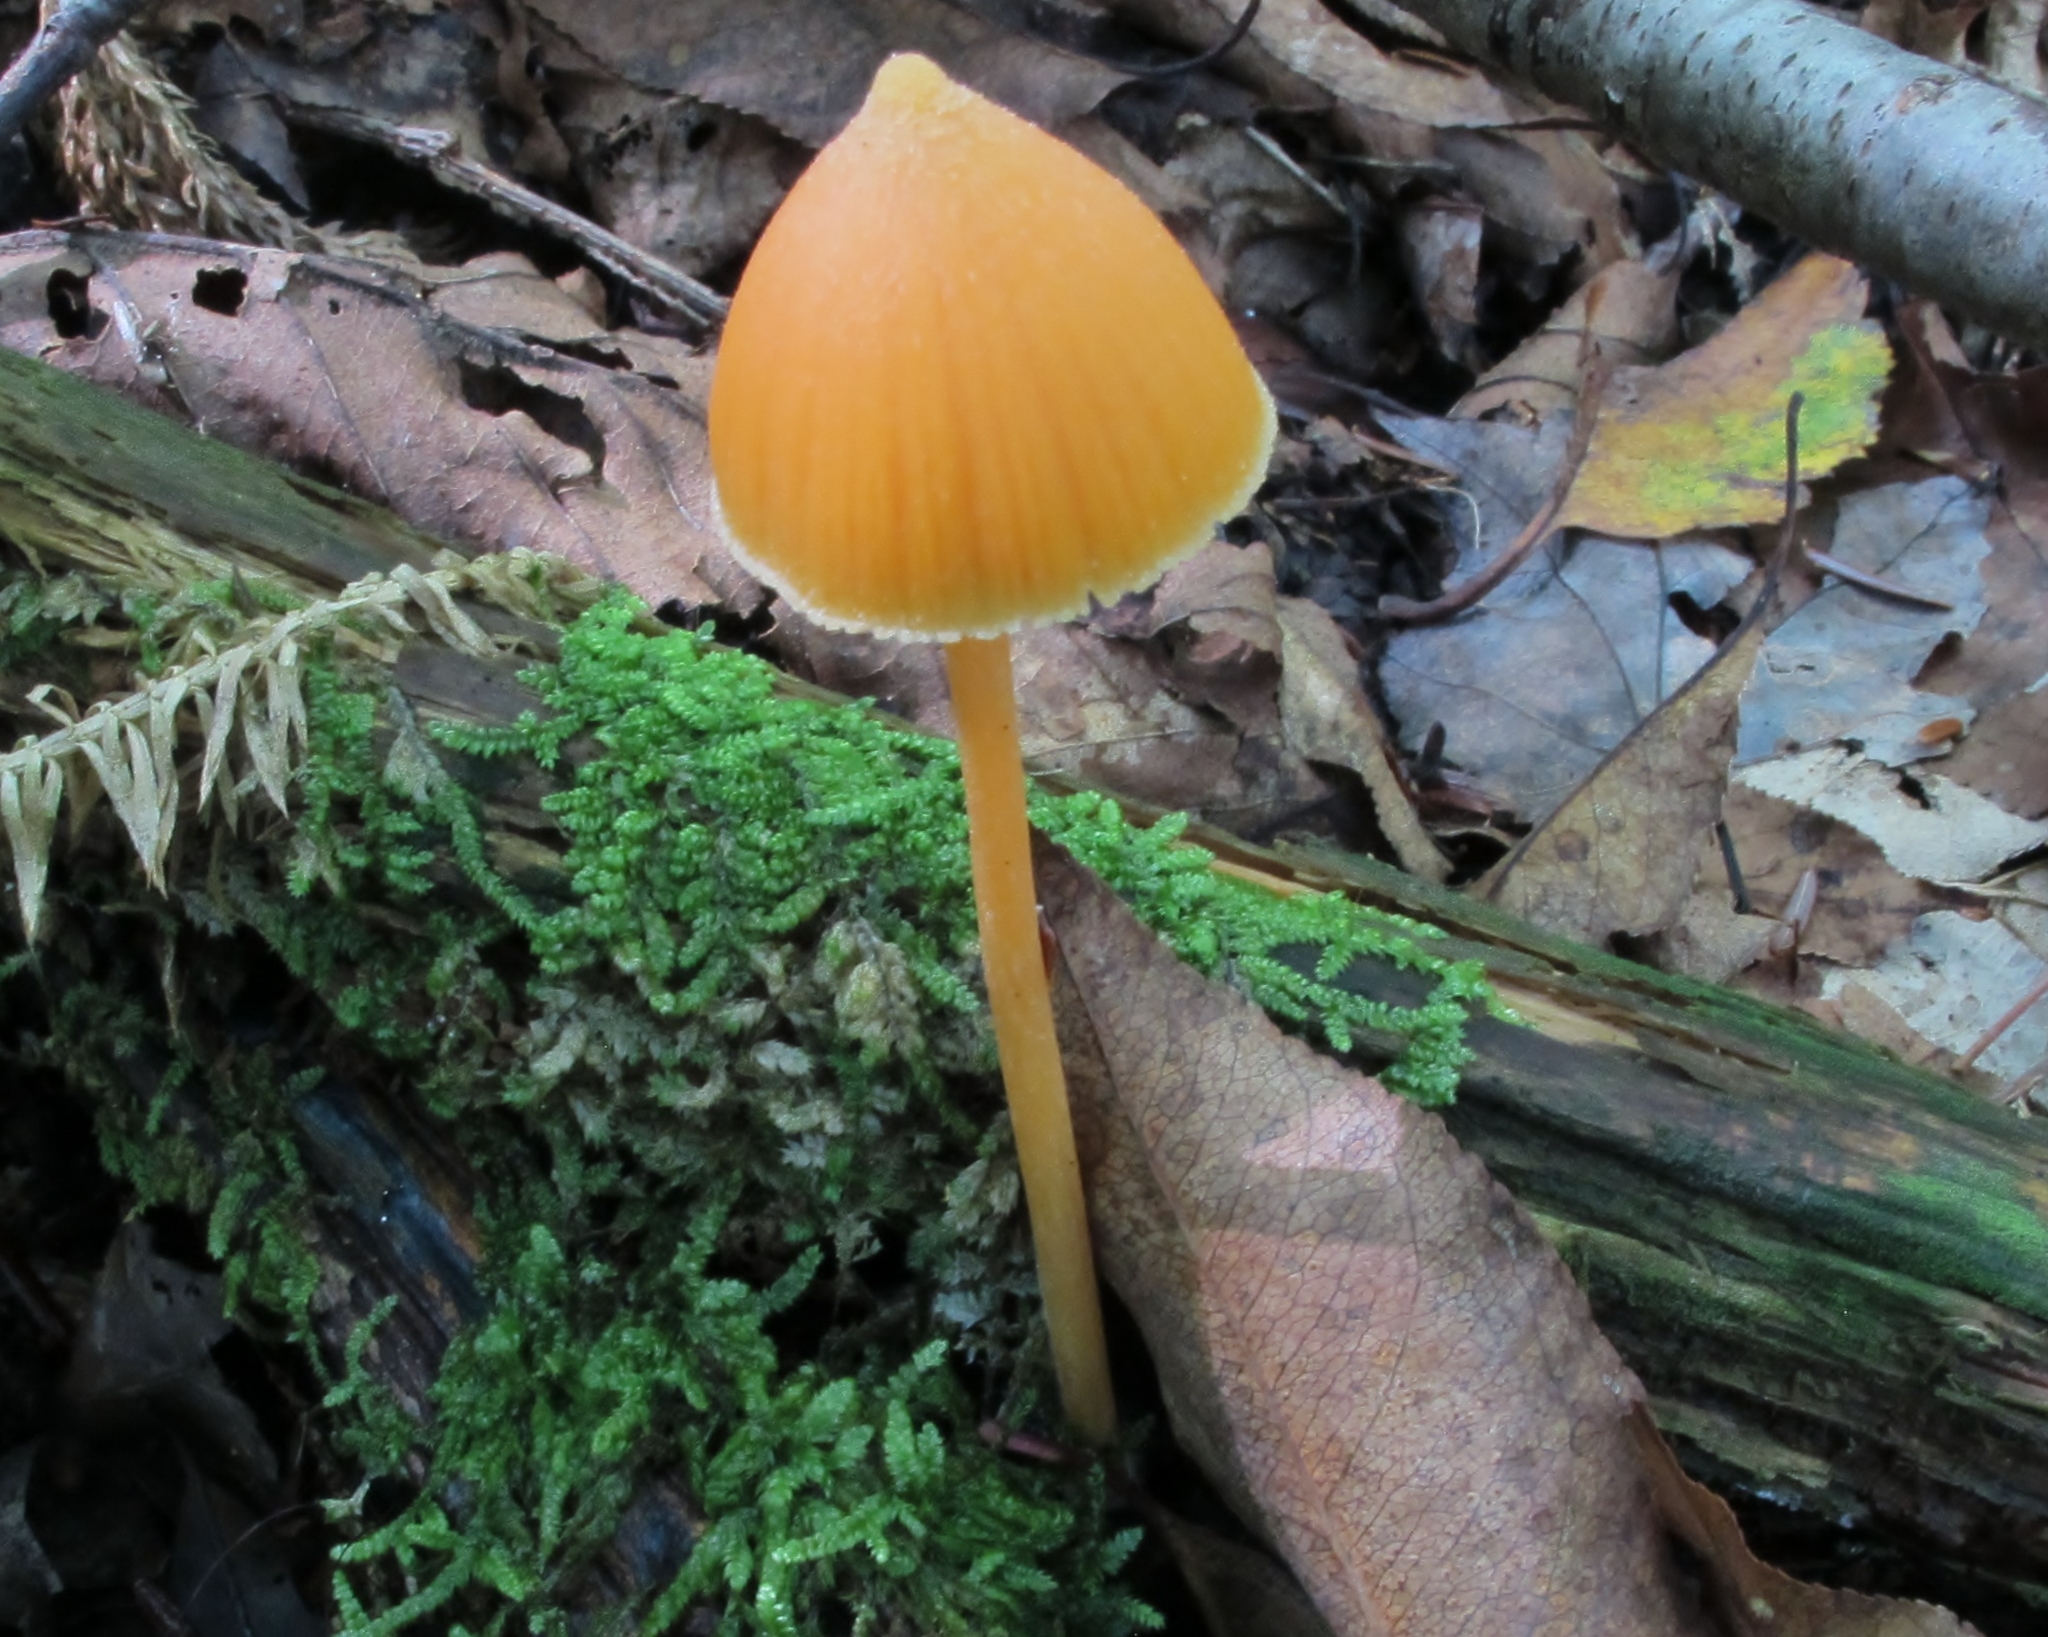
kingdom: Fungi
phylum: Basidiomycota
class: Agaricomycetes
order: Agaricales
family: Entolomataceae
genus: Entoloma
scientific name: Entoloma quadratum
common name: Salmon pinkgill
